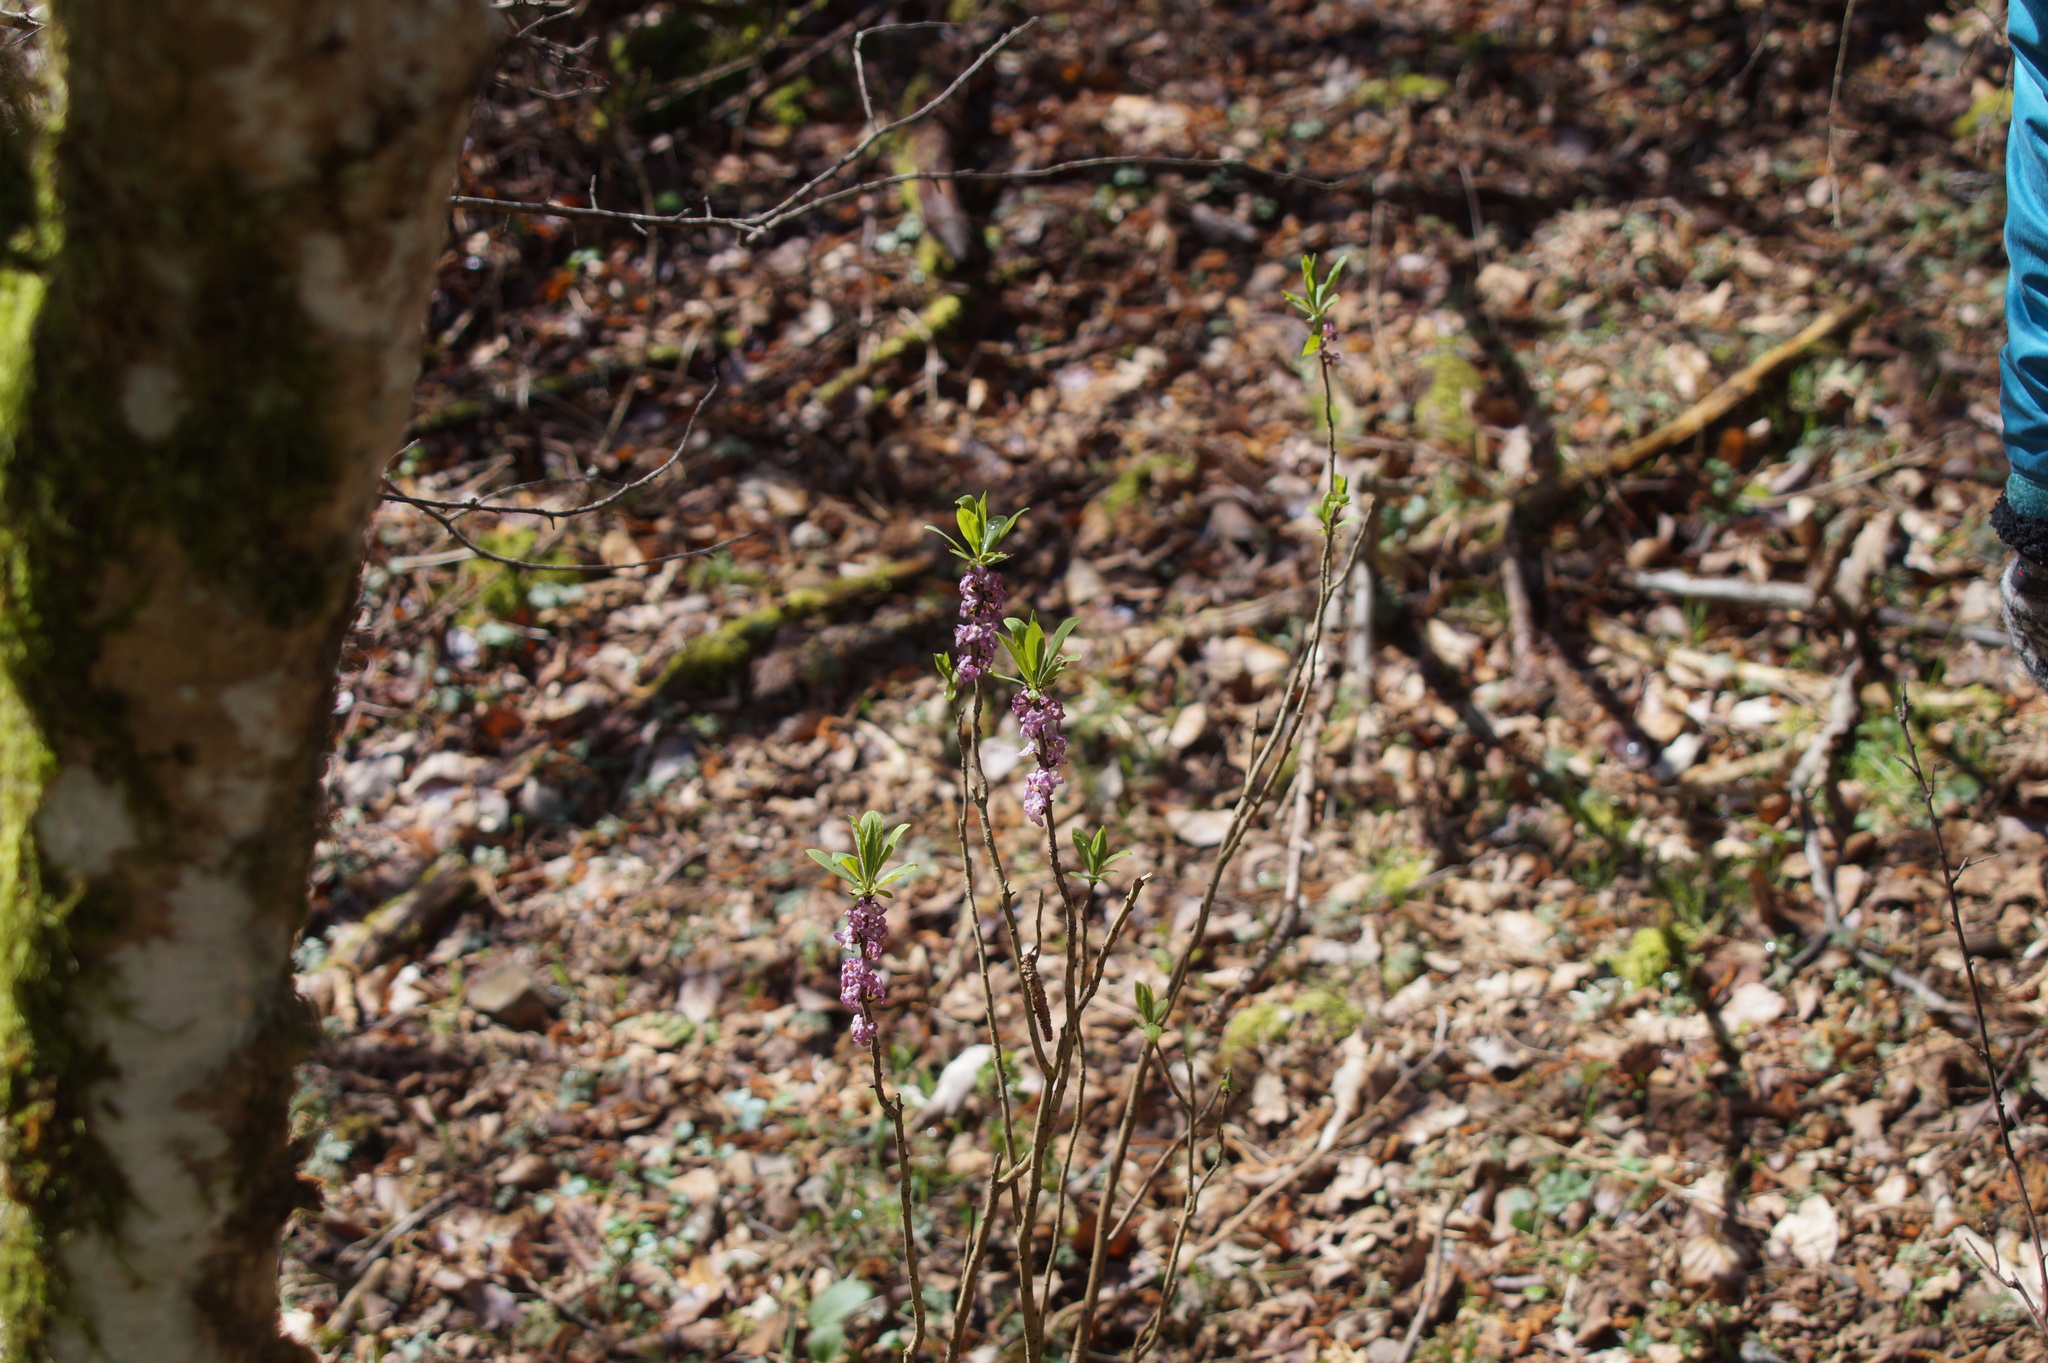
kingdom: Plantae
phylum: Tracheophyta
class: Magnoliopsida
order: Malvales
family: Thymelaeaceae
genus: Daphne
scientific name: Daphne mezereum
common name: Mezereon
